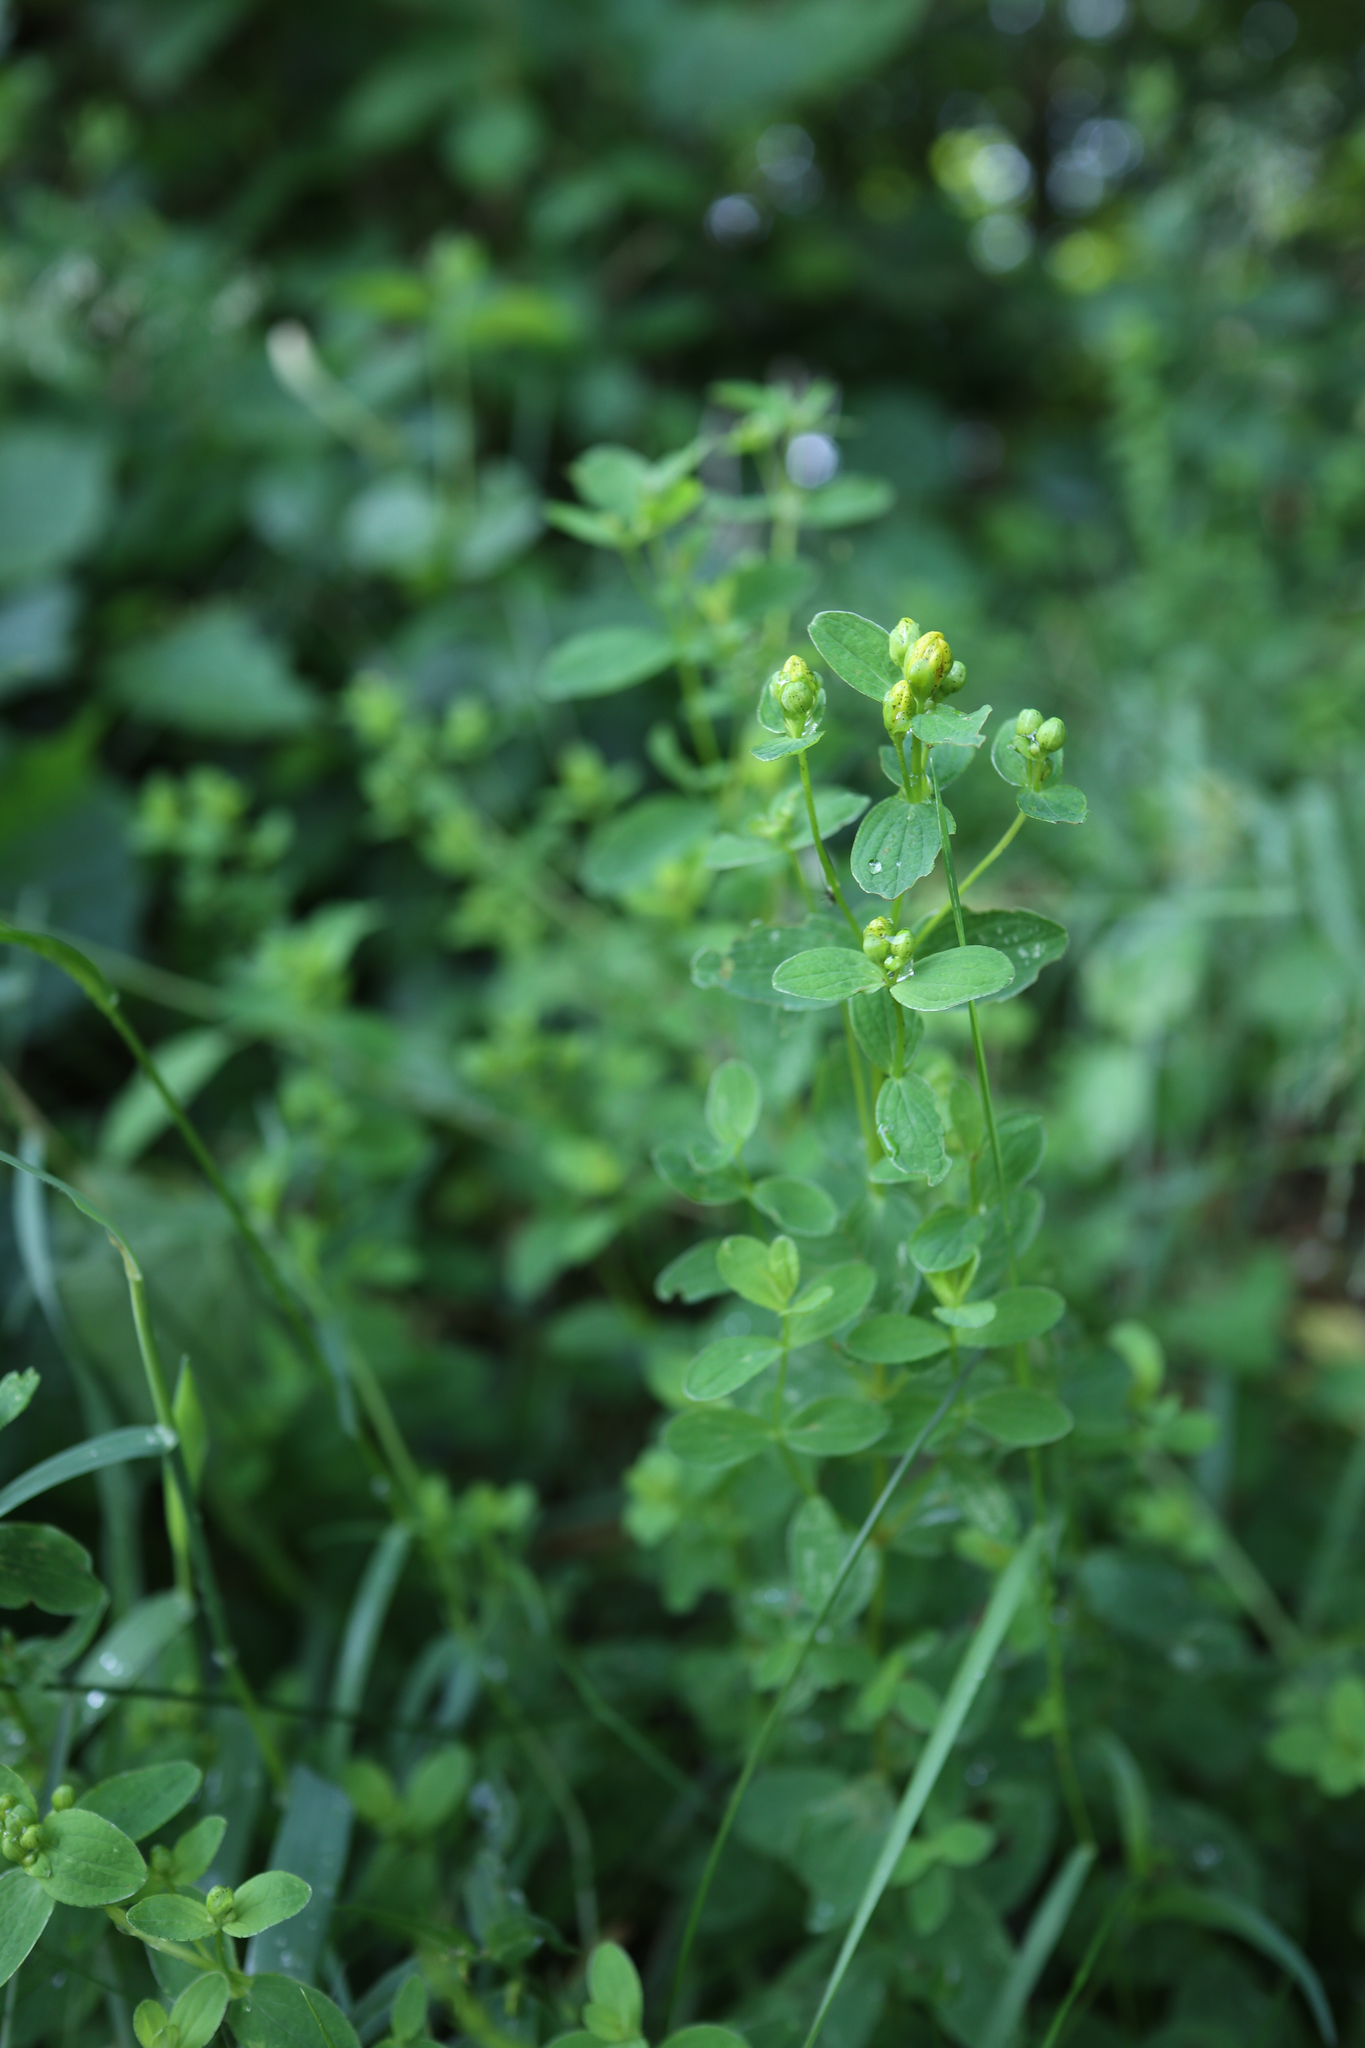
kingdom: Plantae
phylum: Tracheophyta
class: Magnoliopsida
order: Malpighiales
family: Hypericaceae
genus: Hypericum
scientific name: Hypericum perforatum
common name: Common st. johnswort
